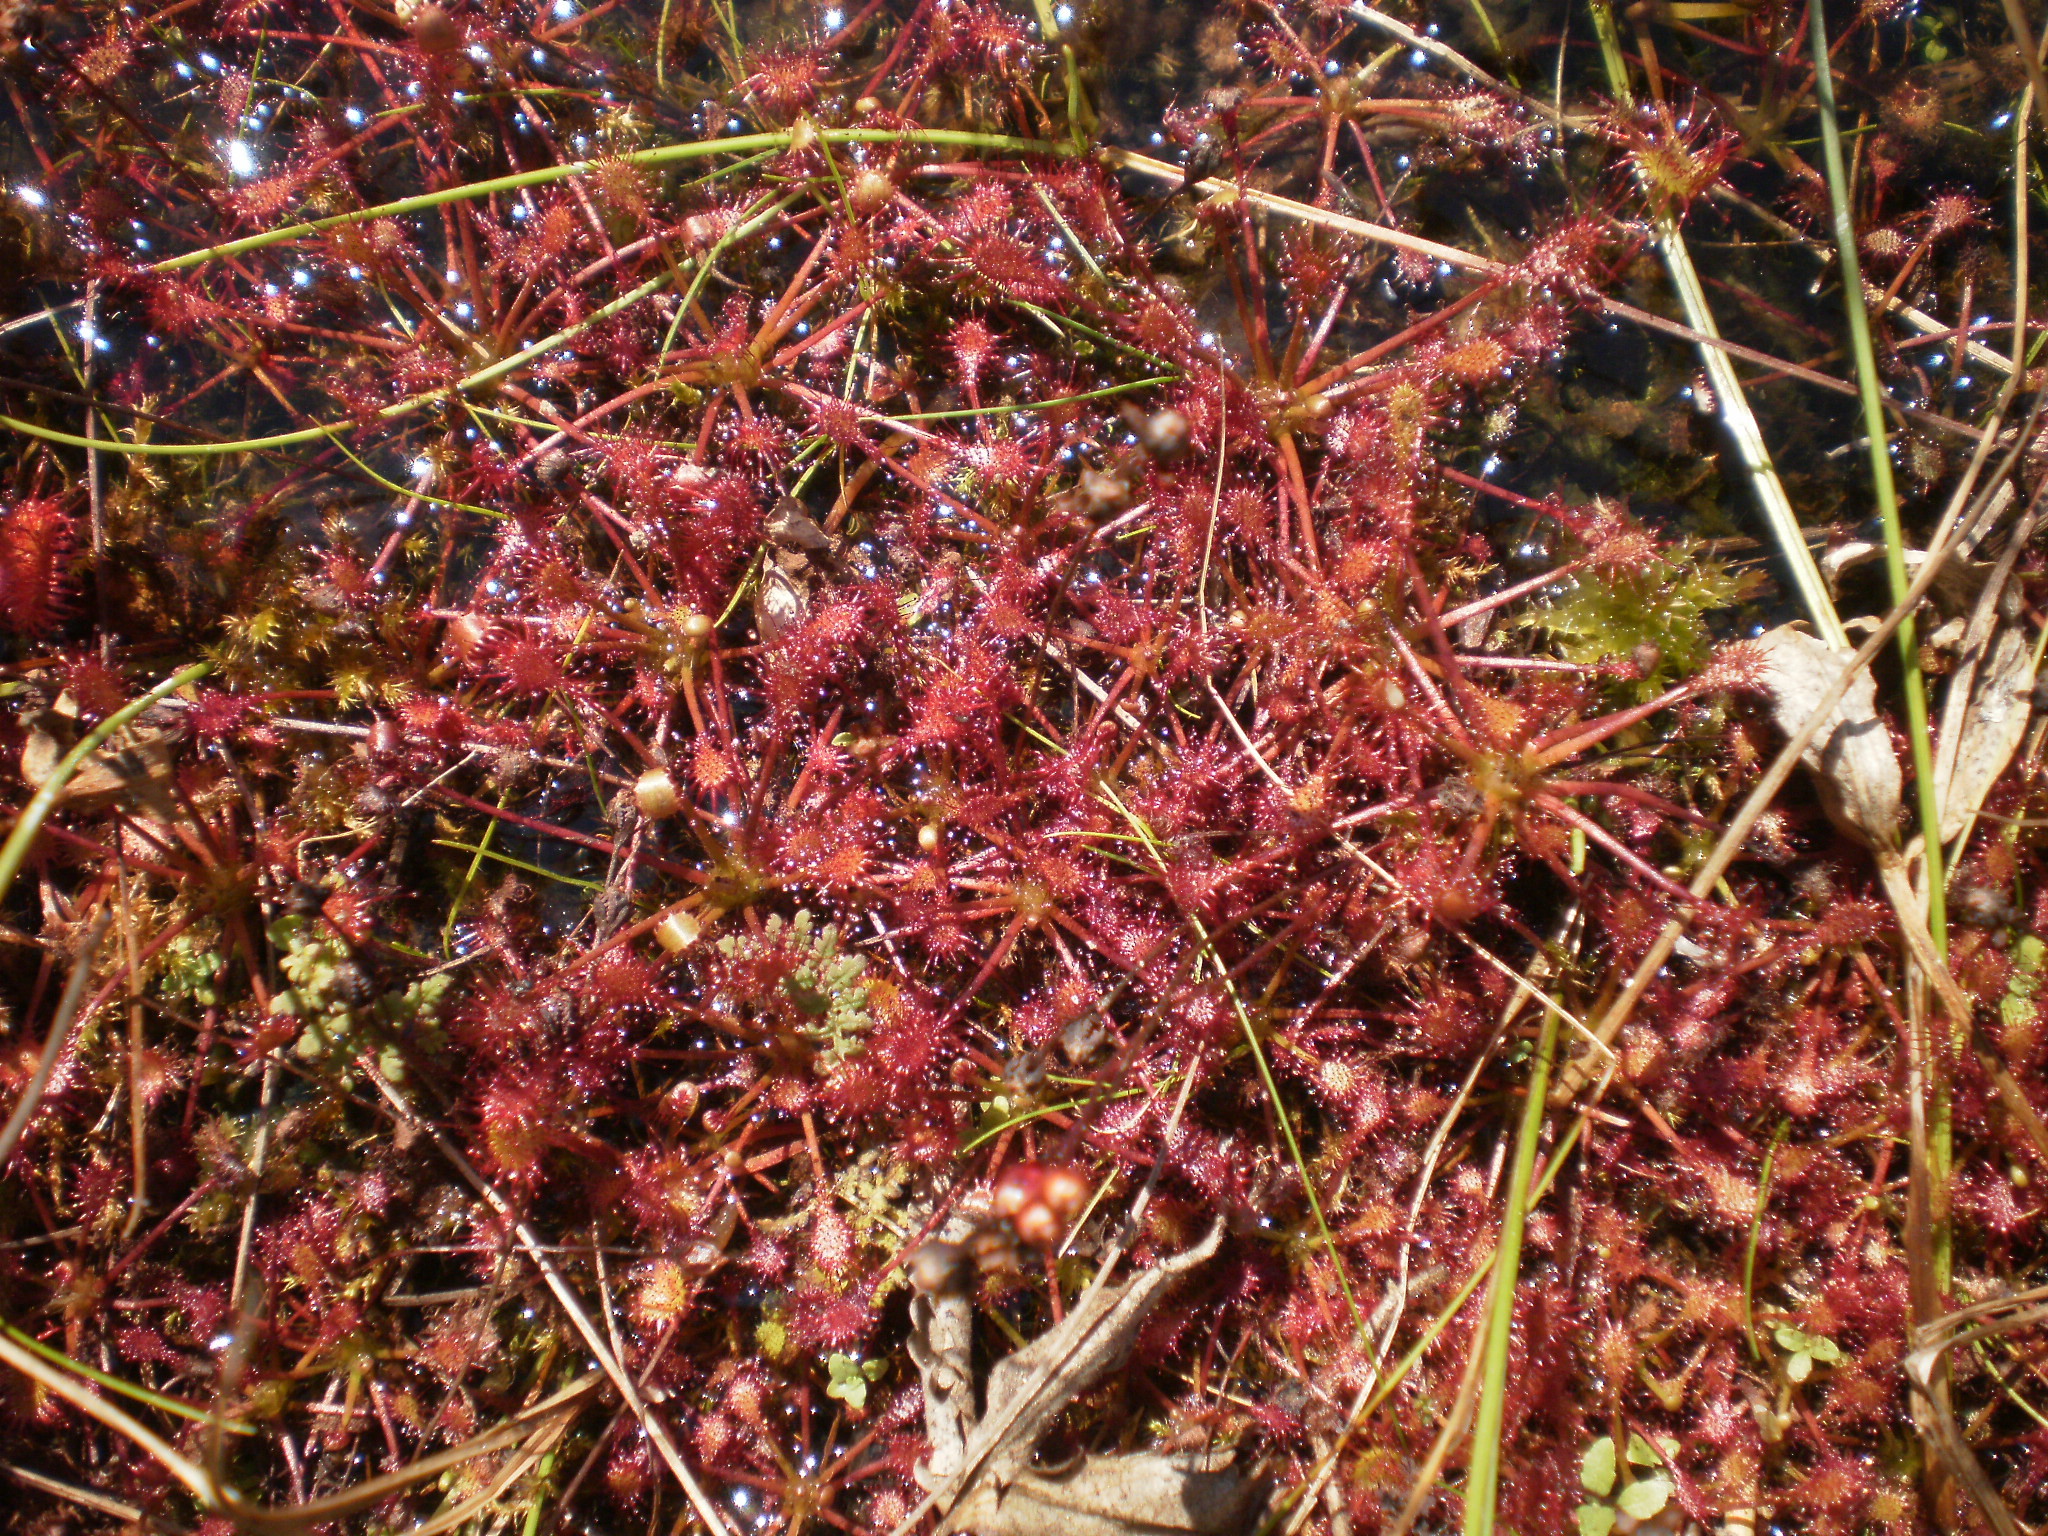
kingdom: Plantae
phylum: Tracheophyta
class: Magnoliopsida
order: Caryophyllales
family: Droseraceae
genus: Drosera
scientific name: Drosera intermedia
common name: Oblong-leaved sundew
